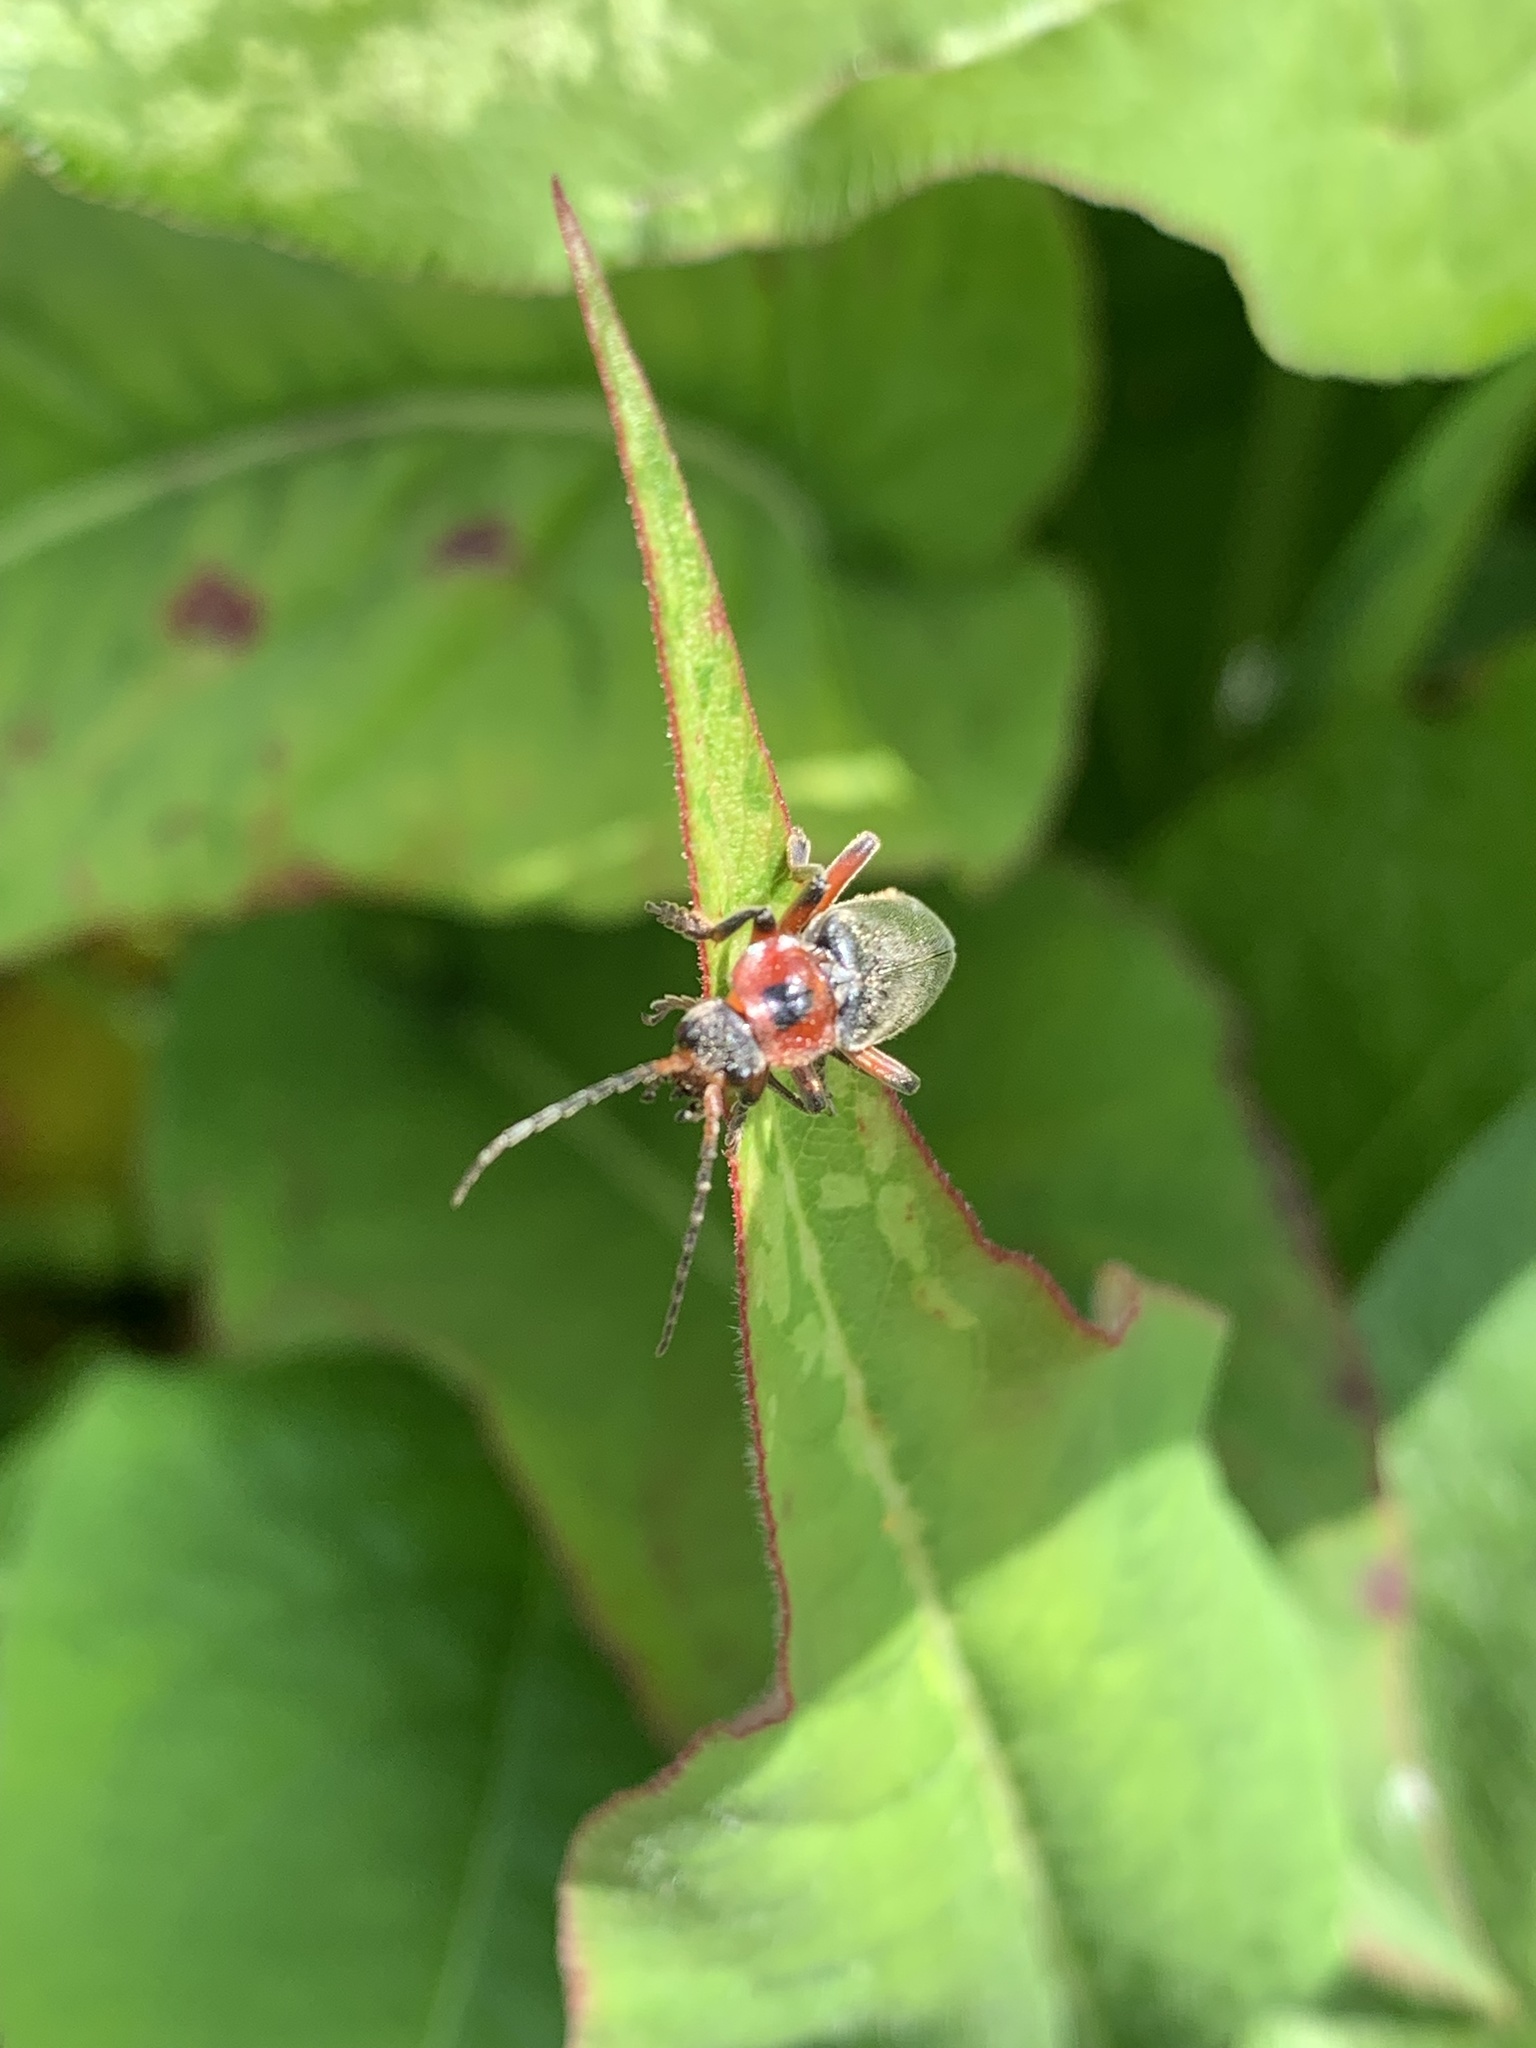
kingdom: Animalia
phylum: Arthropoda
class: Insecta
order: Coleoptera
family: Cantharidae
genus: Cantharis
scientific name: Cantharis rustica
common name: Soldier beetle
